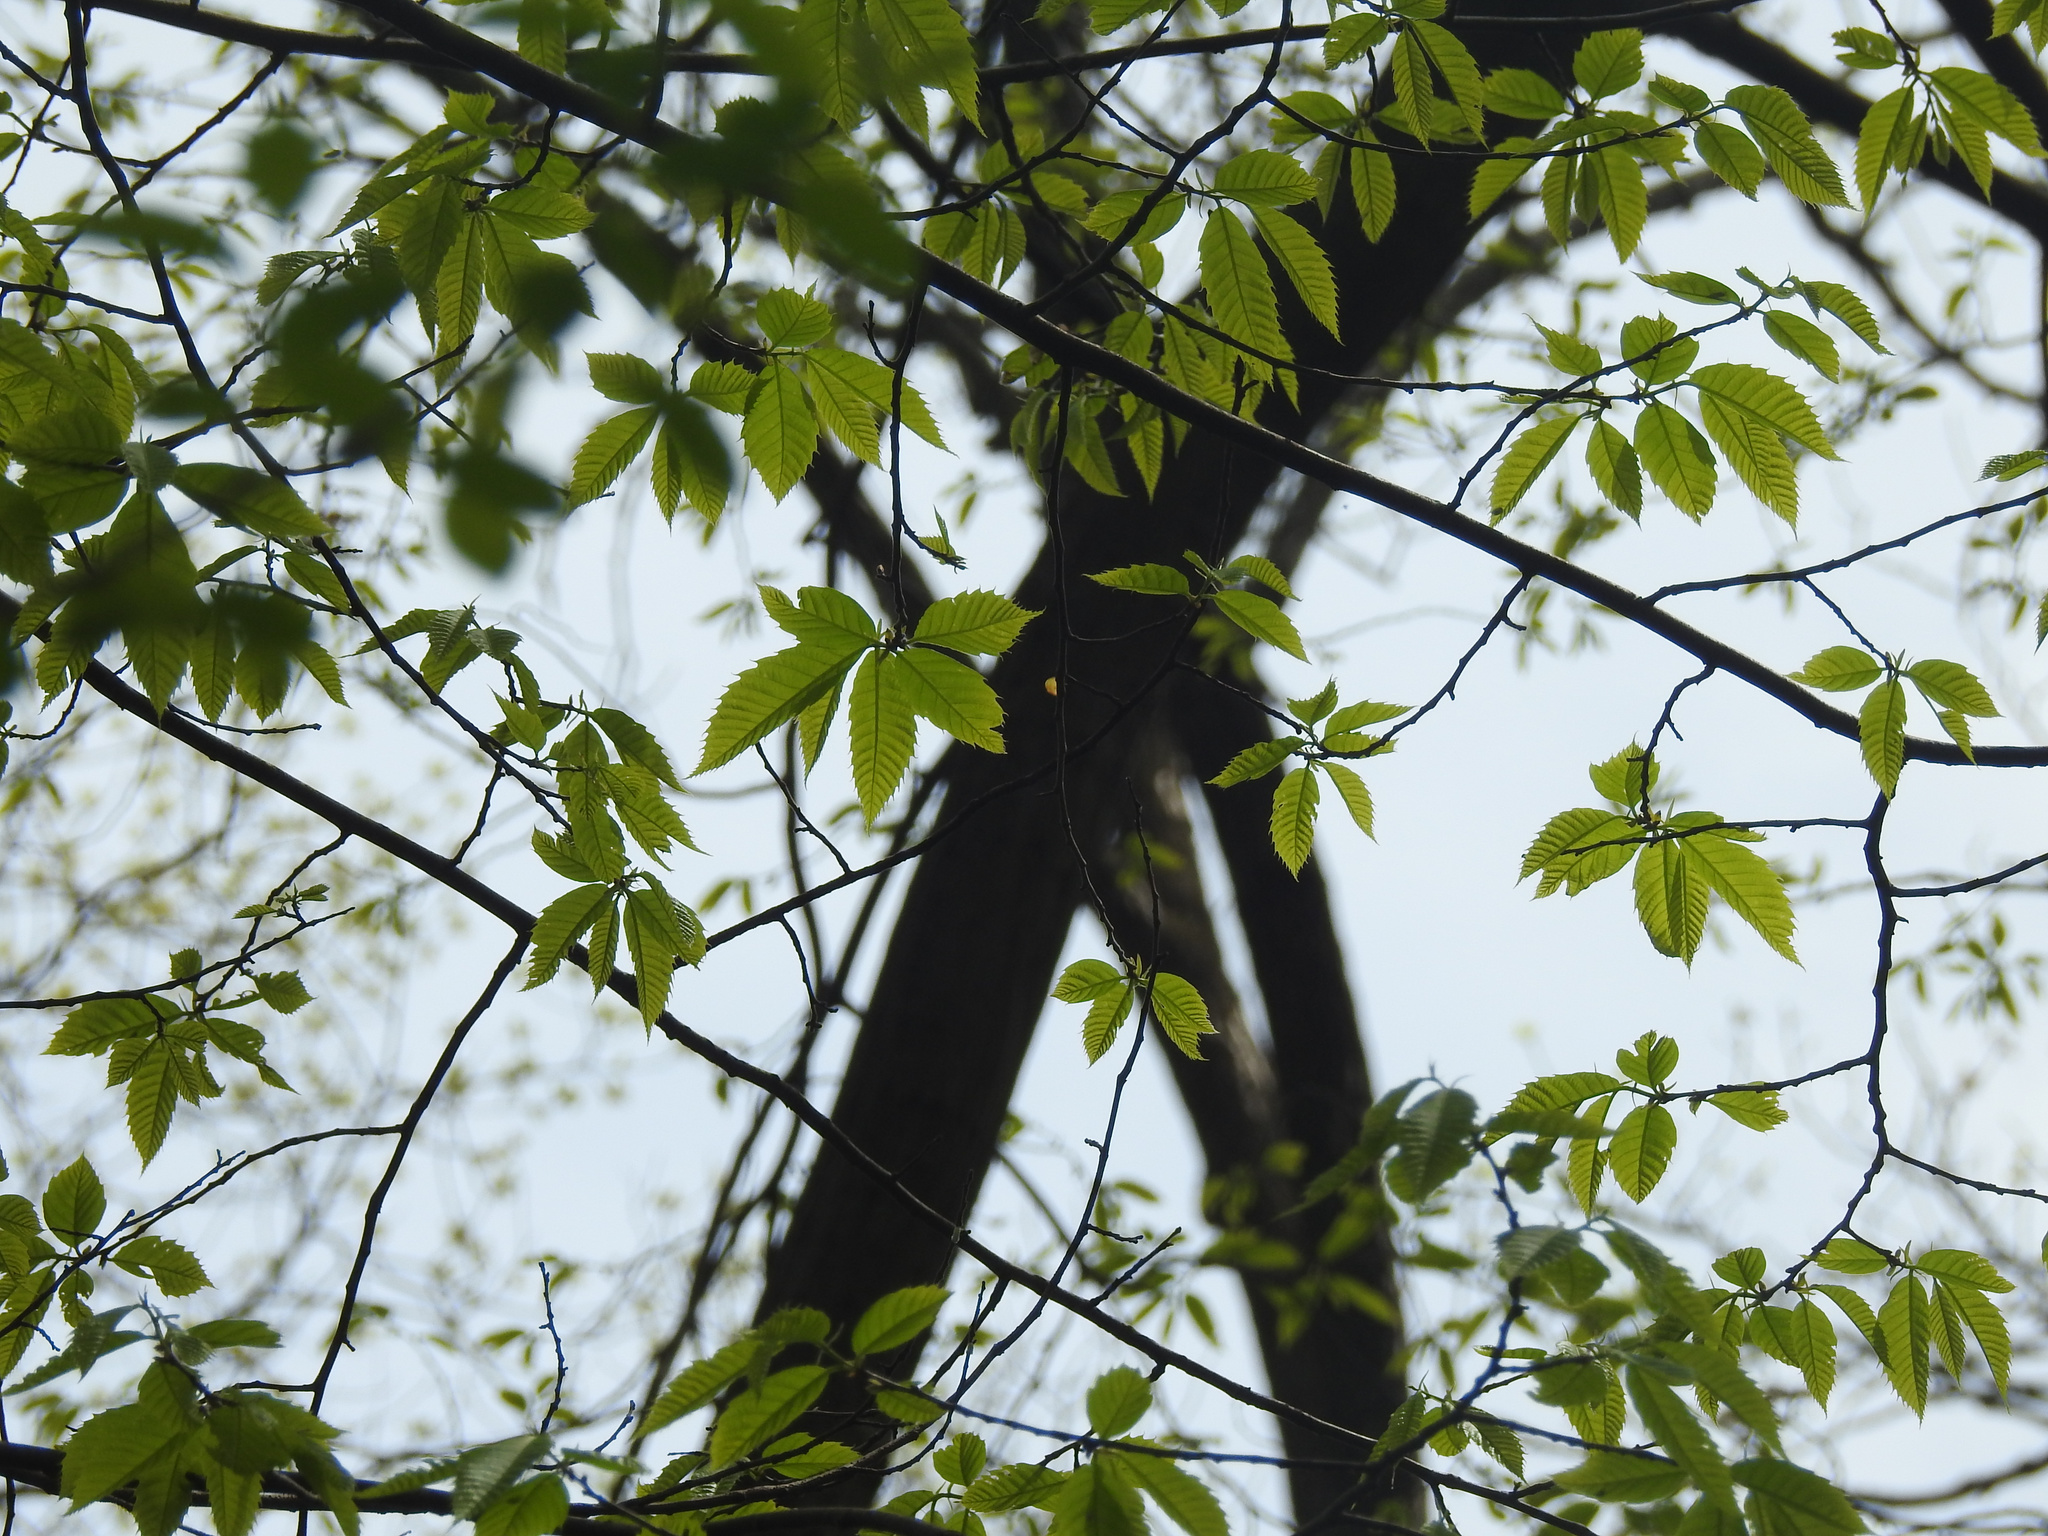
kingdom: Plantae
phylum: Tracheophyta
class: Magnoliopsida
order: Fagales
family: Fagaceae
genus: Castanea
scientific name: Castanea dentata
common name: American chestnut
